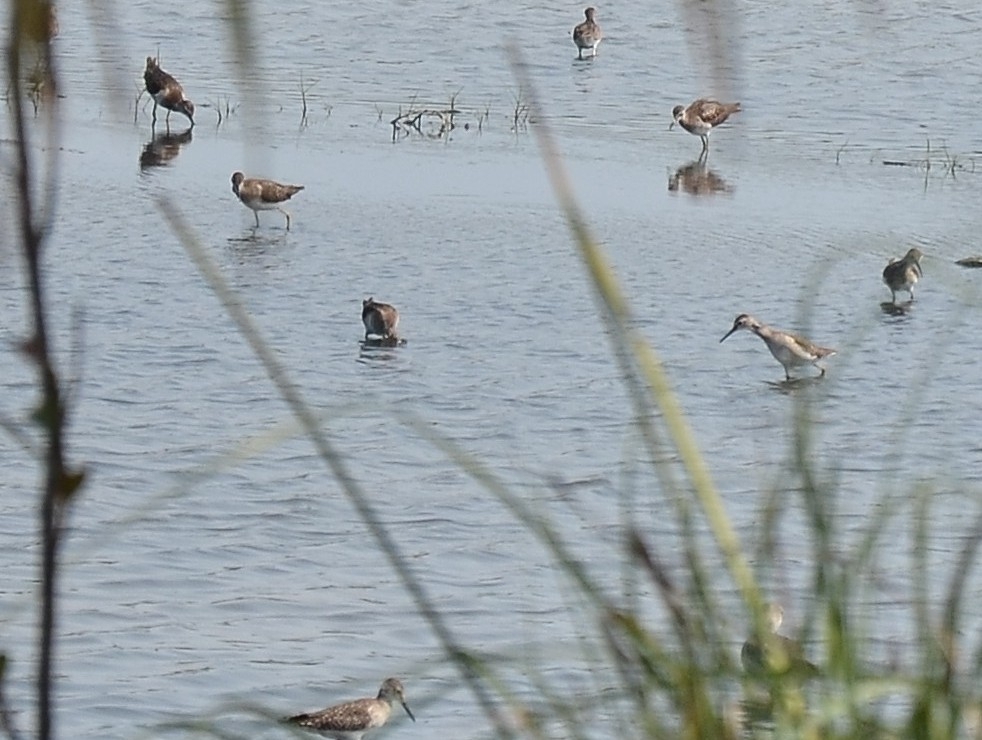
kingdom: Animalia
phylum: Chordata
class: Aves
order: Charadriiformes
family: Scolopacidae
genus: Tringa
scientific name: Tringa glareola
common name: Wood sandpiper
